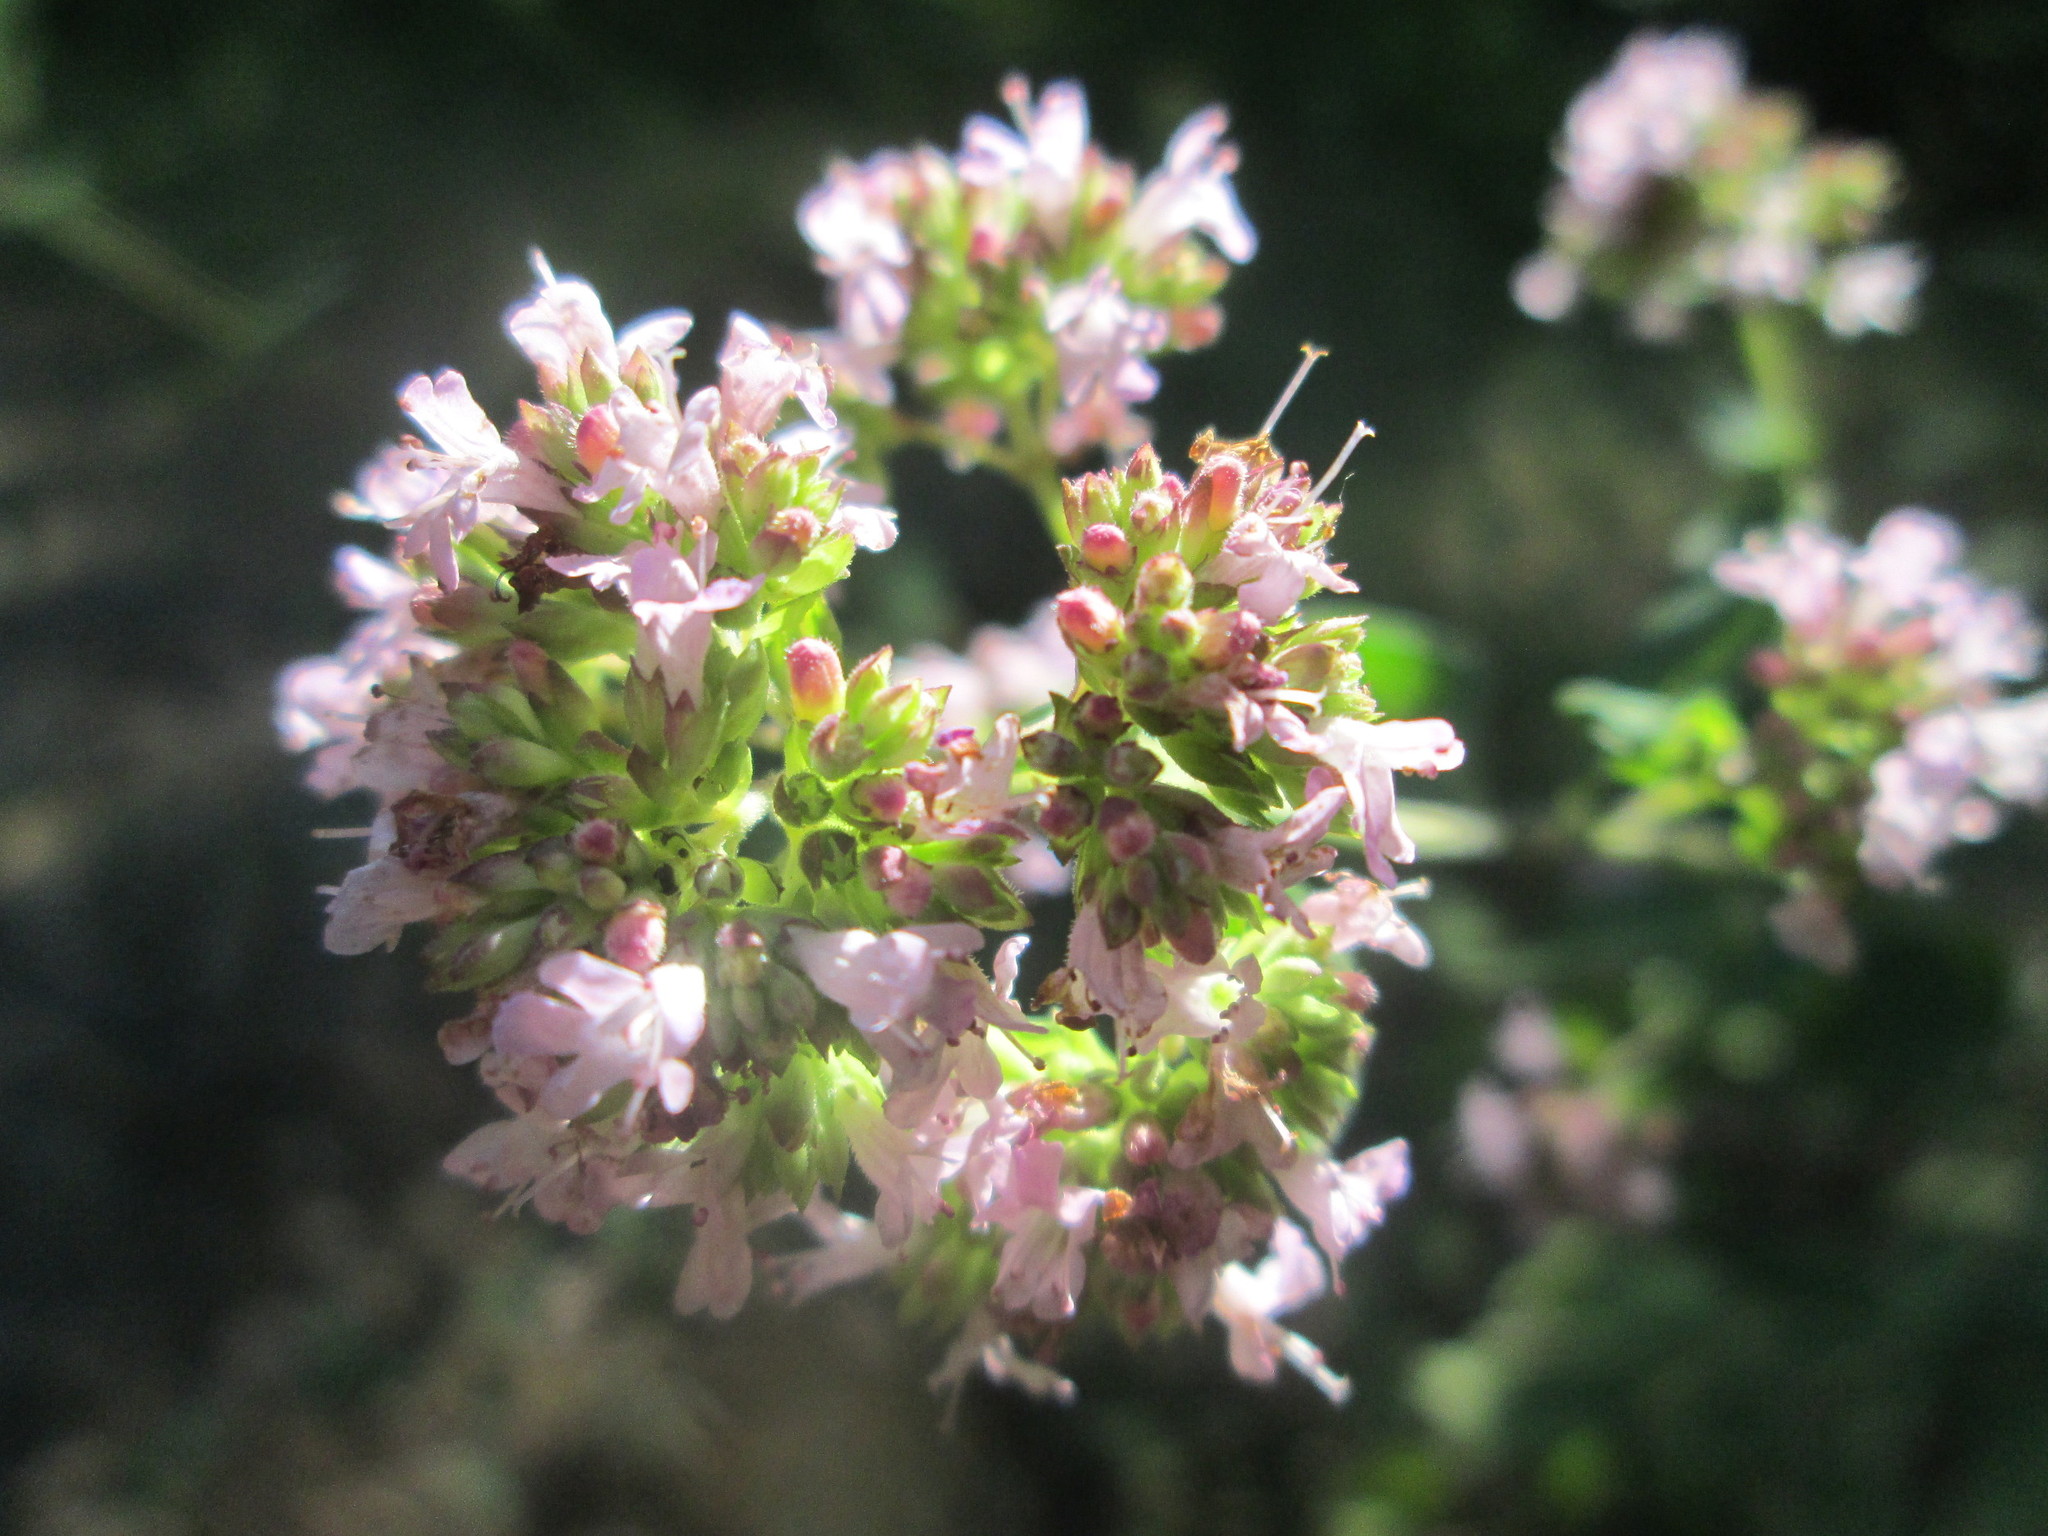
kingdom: Plantae
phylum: Tracheophyta
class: Magnoliopsida
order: Lamiales
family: Lamiaceae
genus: Origanum
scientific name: Origanum vulgare
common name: Wild marjoram
